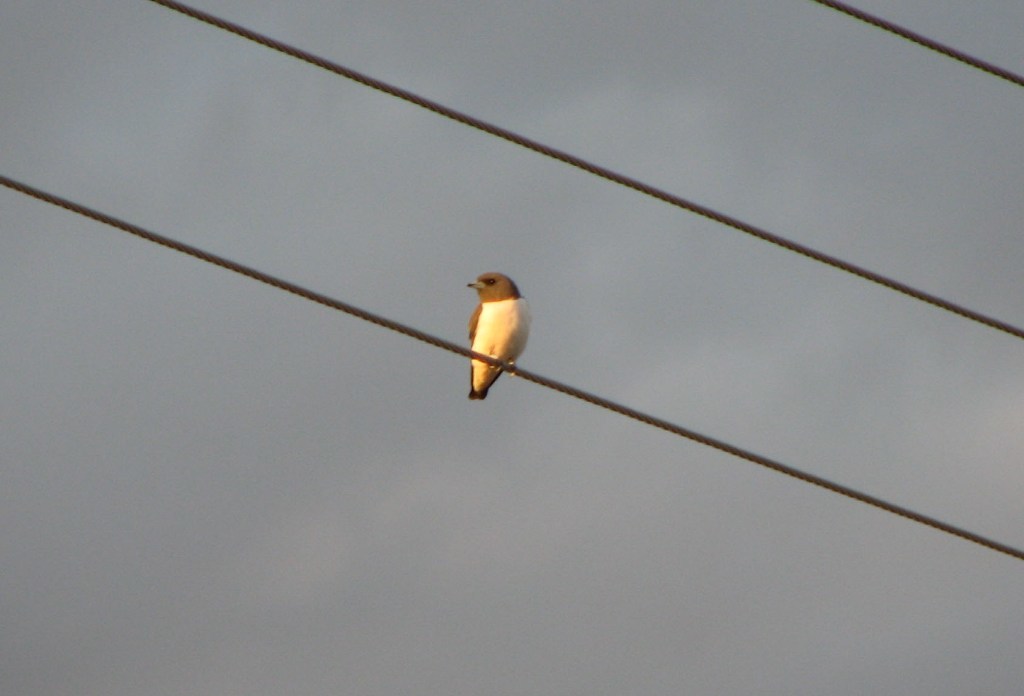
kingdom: Animalia
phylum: Chordata
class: Aves
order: Passeriformes
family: Artamidae
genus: Artamus
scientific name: Artamus leucoryn
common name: White-breasted woodswallow
